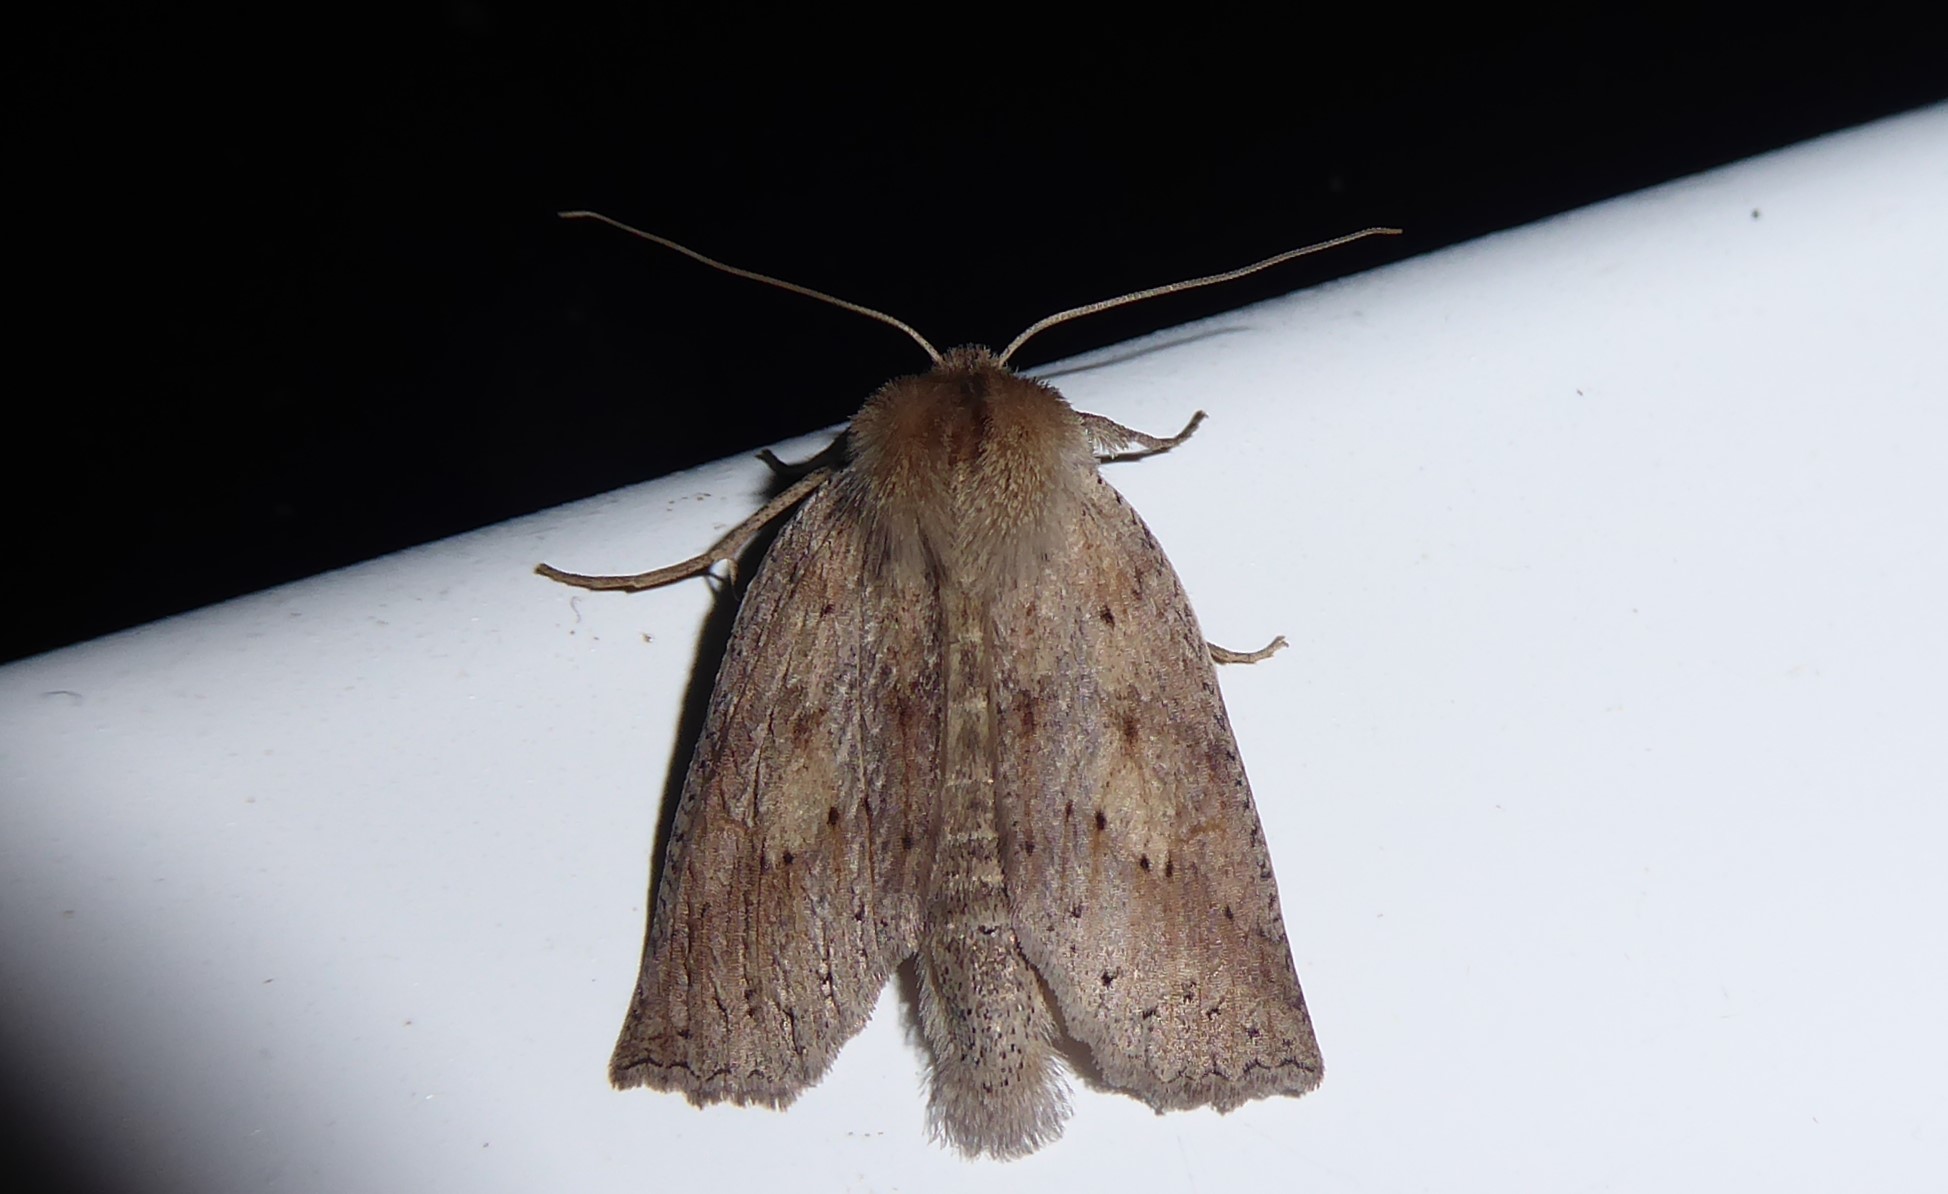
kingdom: Animalia
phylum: Arthropoda
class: Insecta
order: Lepidoptera
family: Geometridae
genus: Declana
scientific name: Declana leptomera
